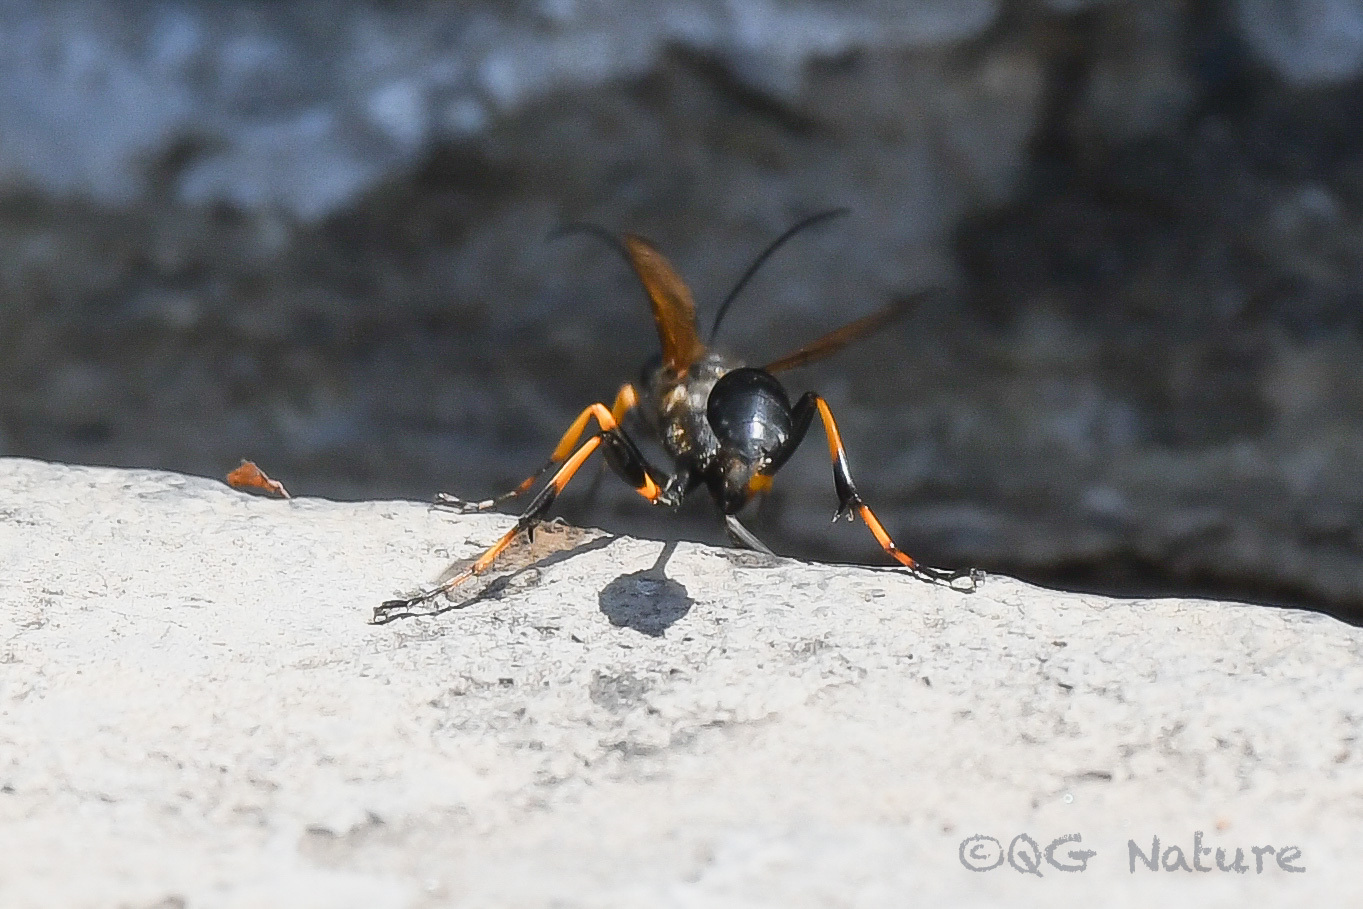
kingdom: Animalia
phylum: Arthropoda
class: Insecta
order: Hymenoptera
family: Sphecidae
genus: Sceliphron
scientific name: Sceliphron madraspatanum
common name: Mud dauber
